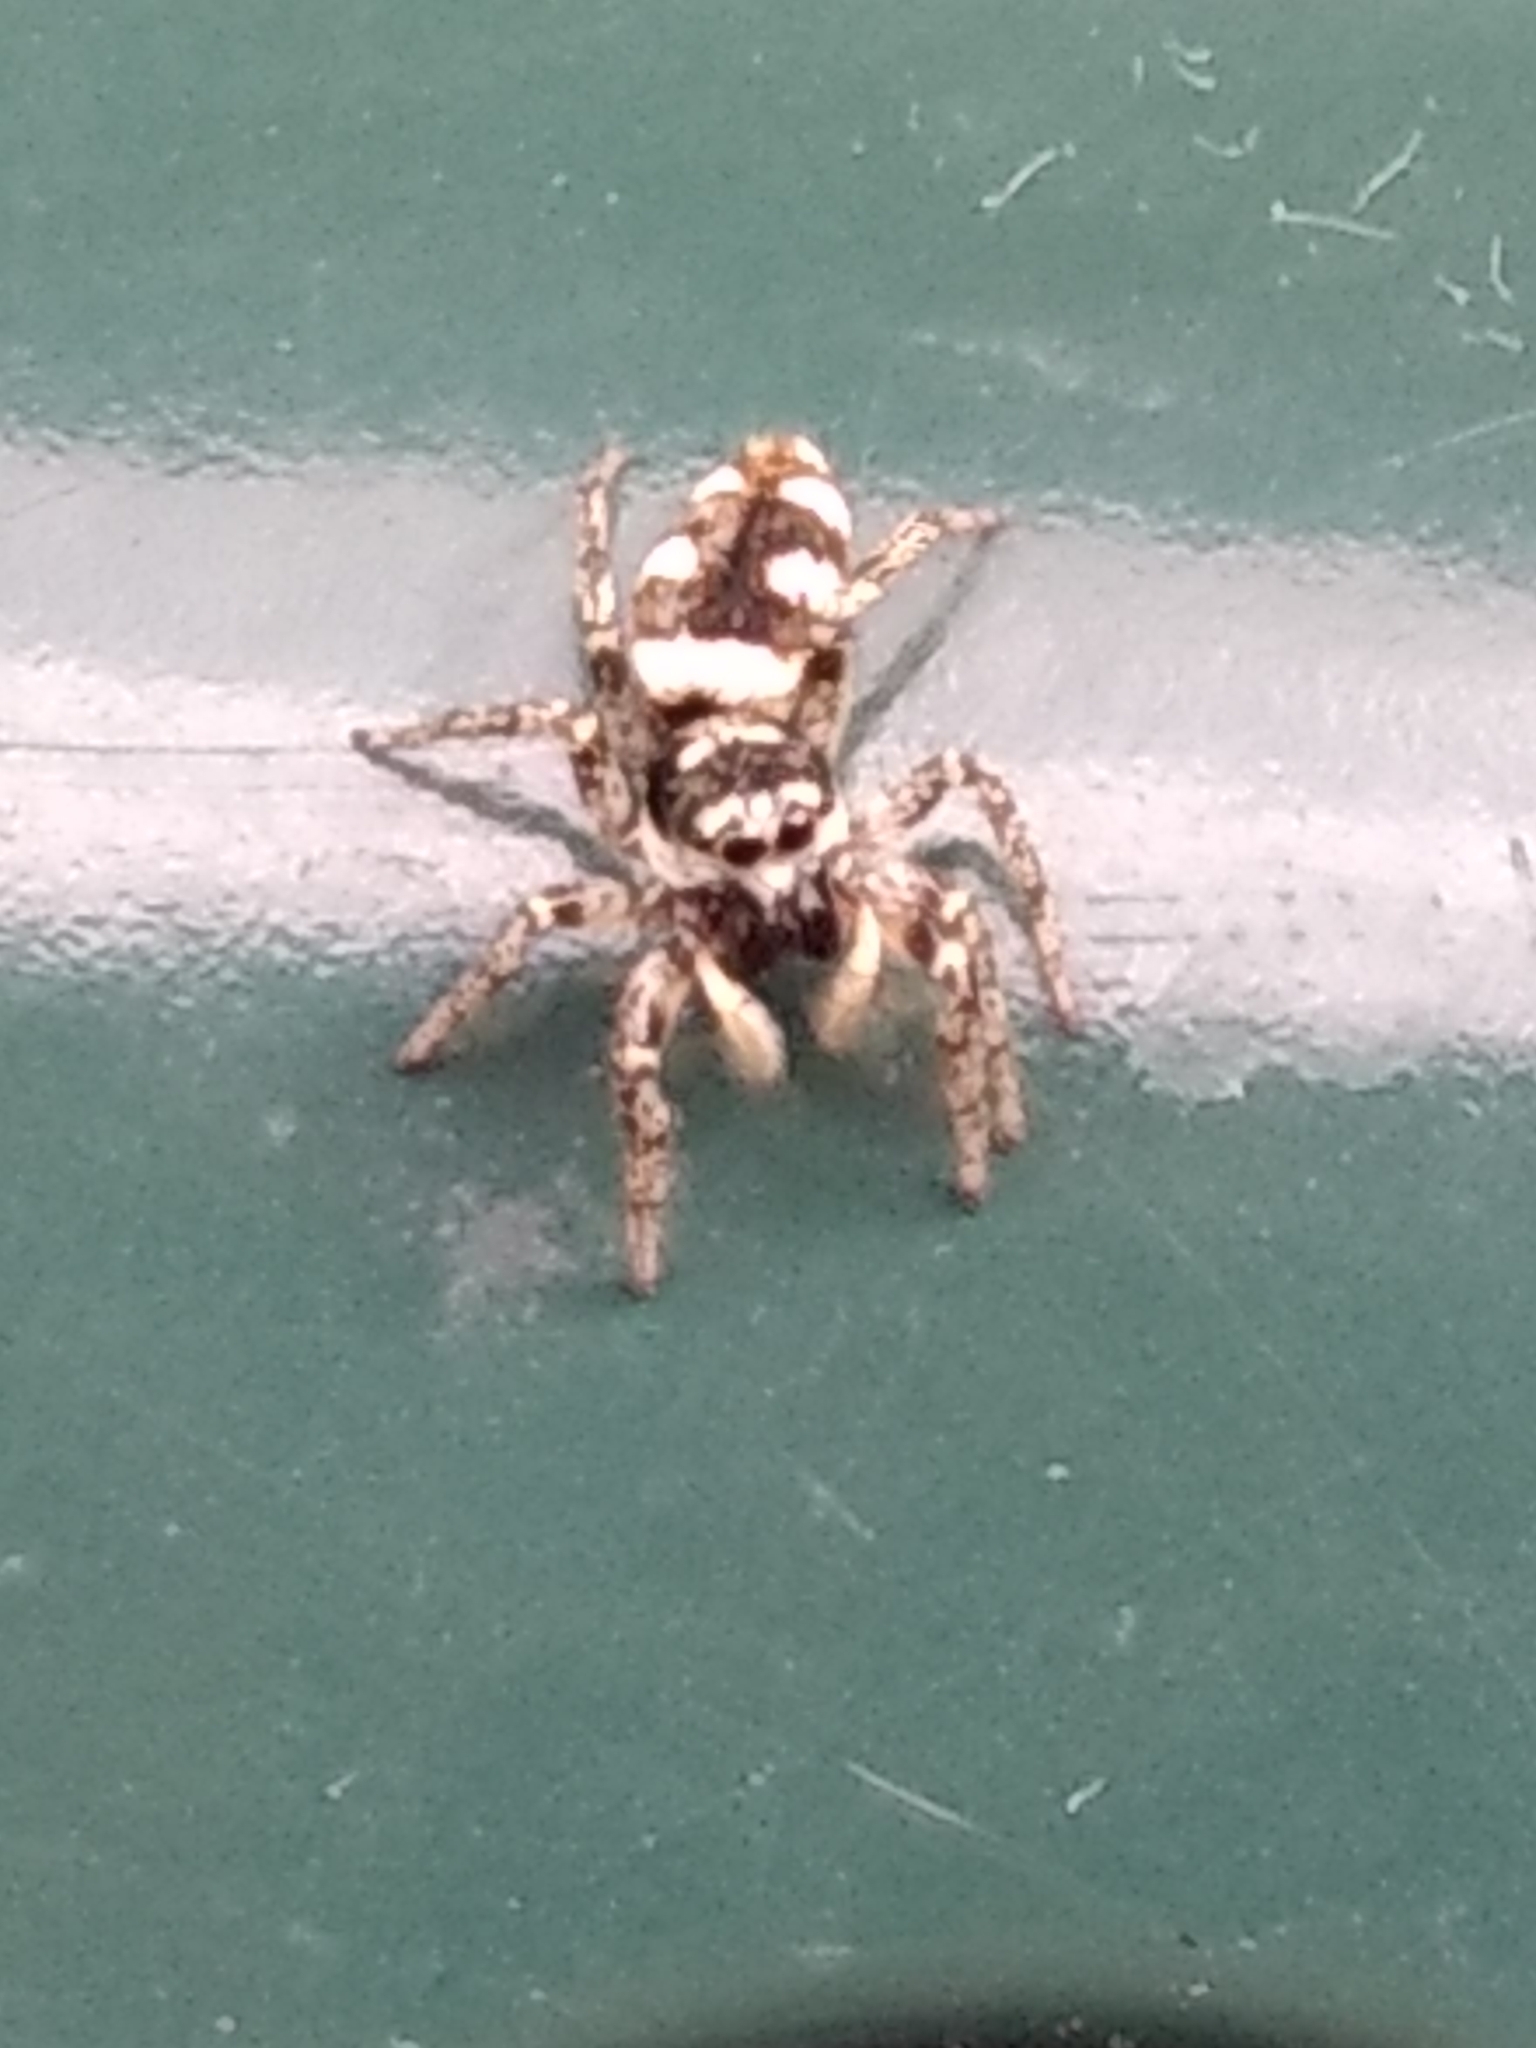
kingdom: Animalia
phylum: Arthropoda
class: Arachnida
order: Araneae
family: Salticidae
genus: Salticus
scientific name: Salticus scenicus
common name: Zebra jumper
